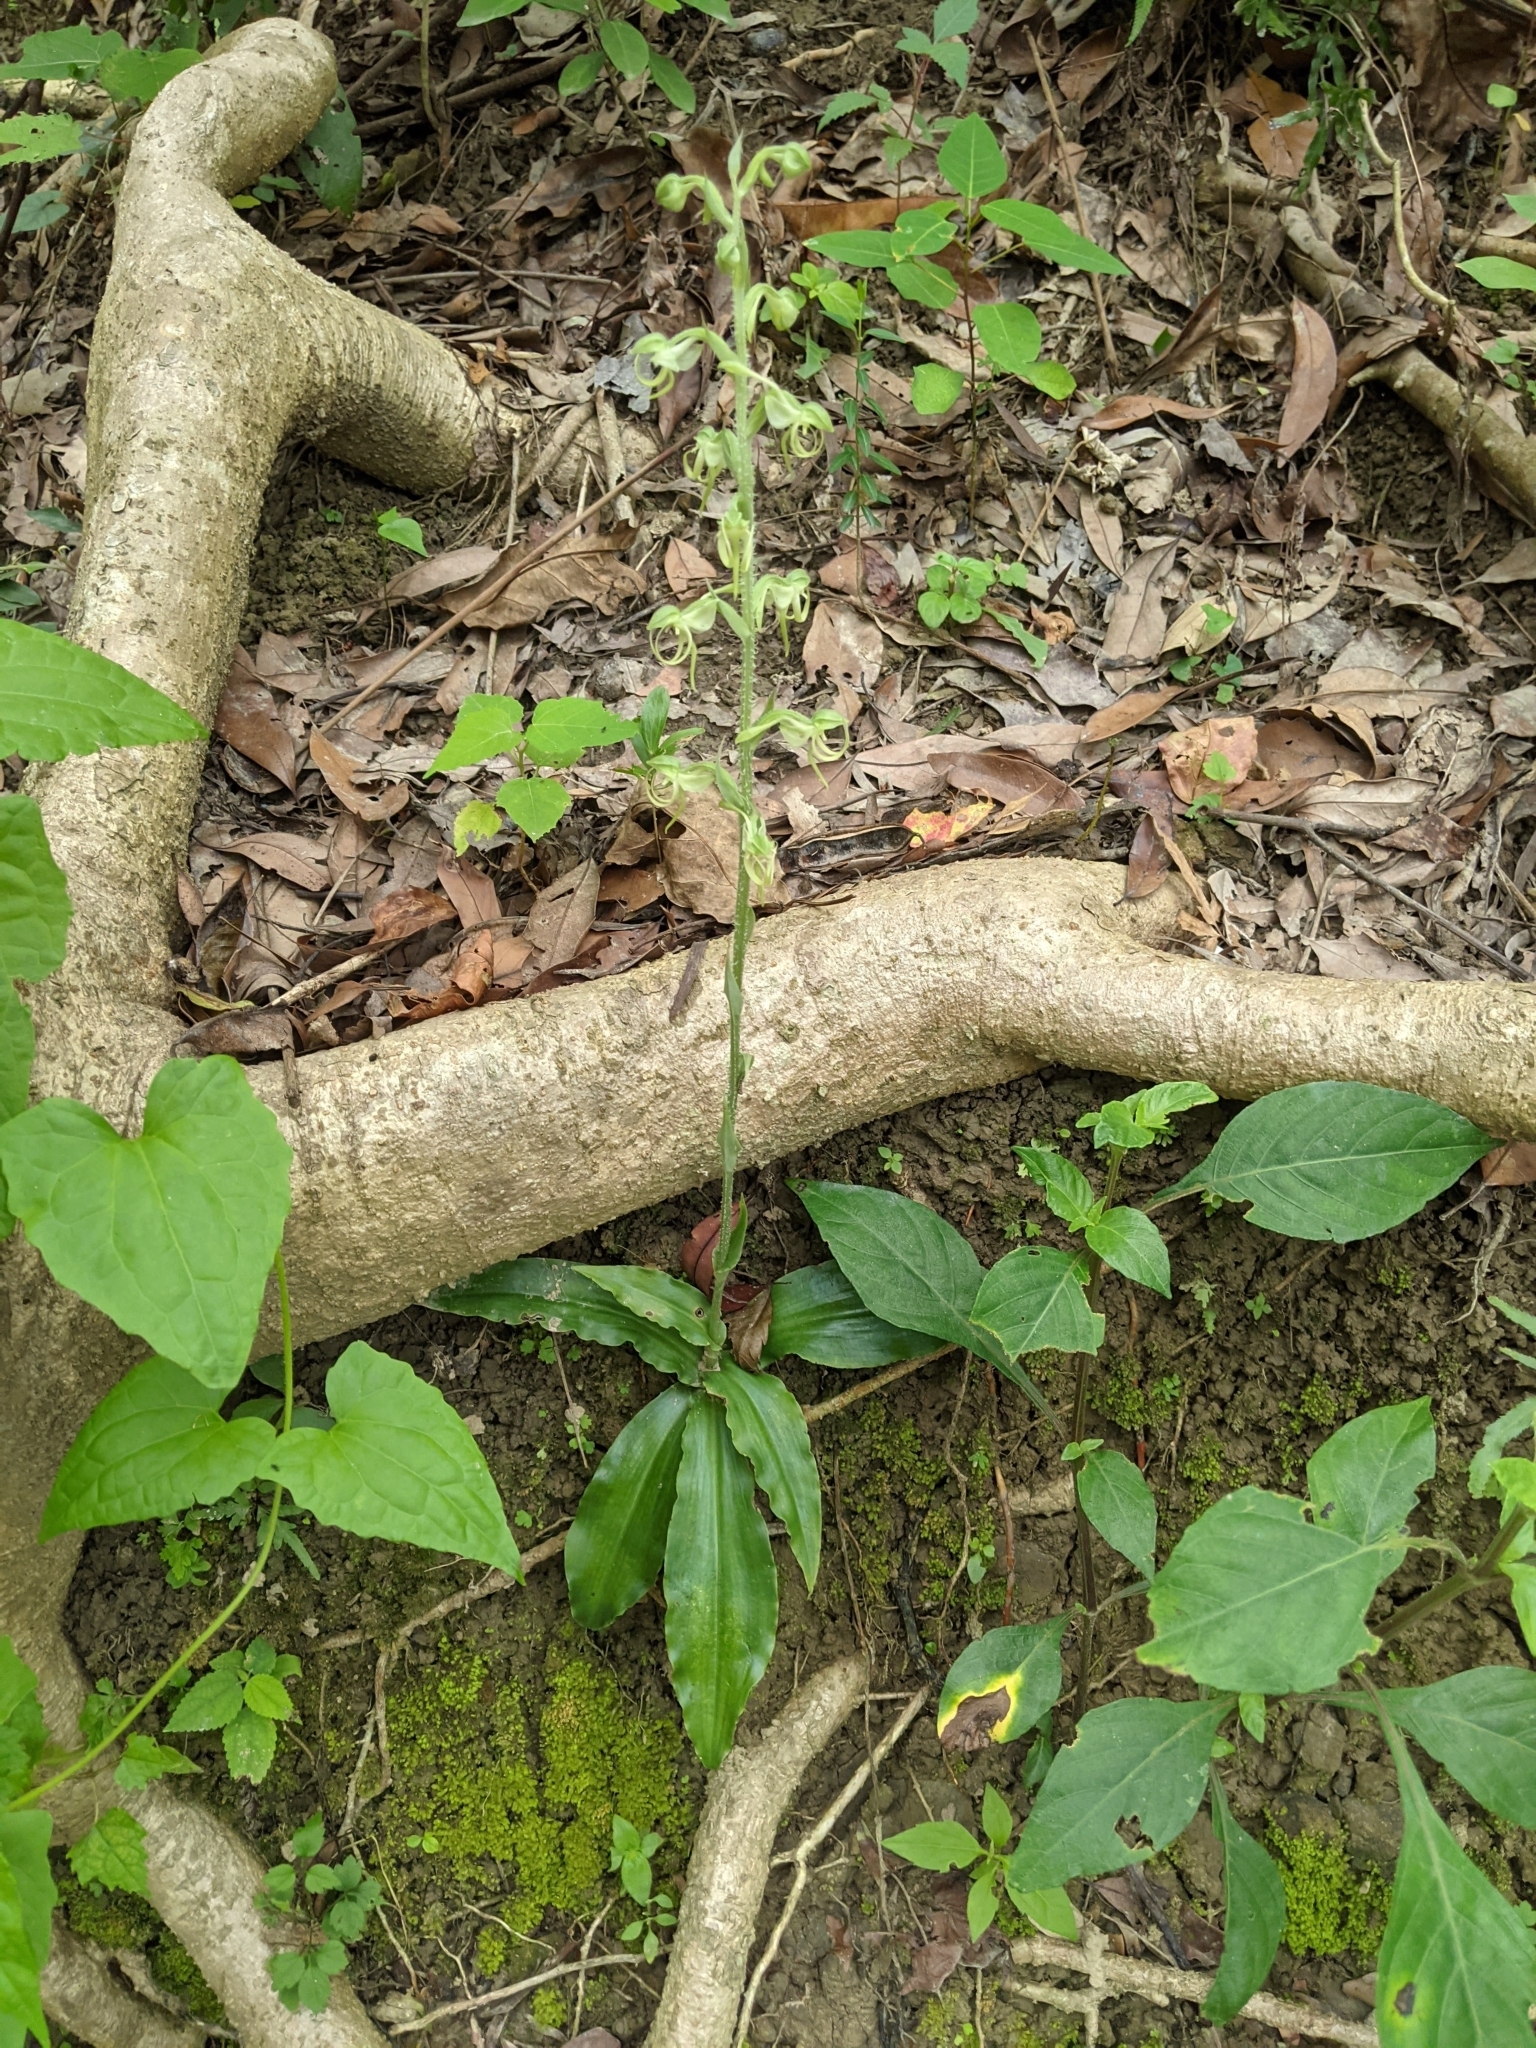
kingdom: Plantae
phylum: Tracheophyta
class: Liliopsida
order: Asparagales
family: Orchidaceae
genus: Habenaria
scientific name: Habenaria ciliolaris
